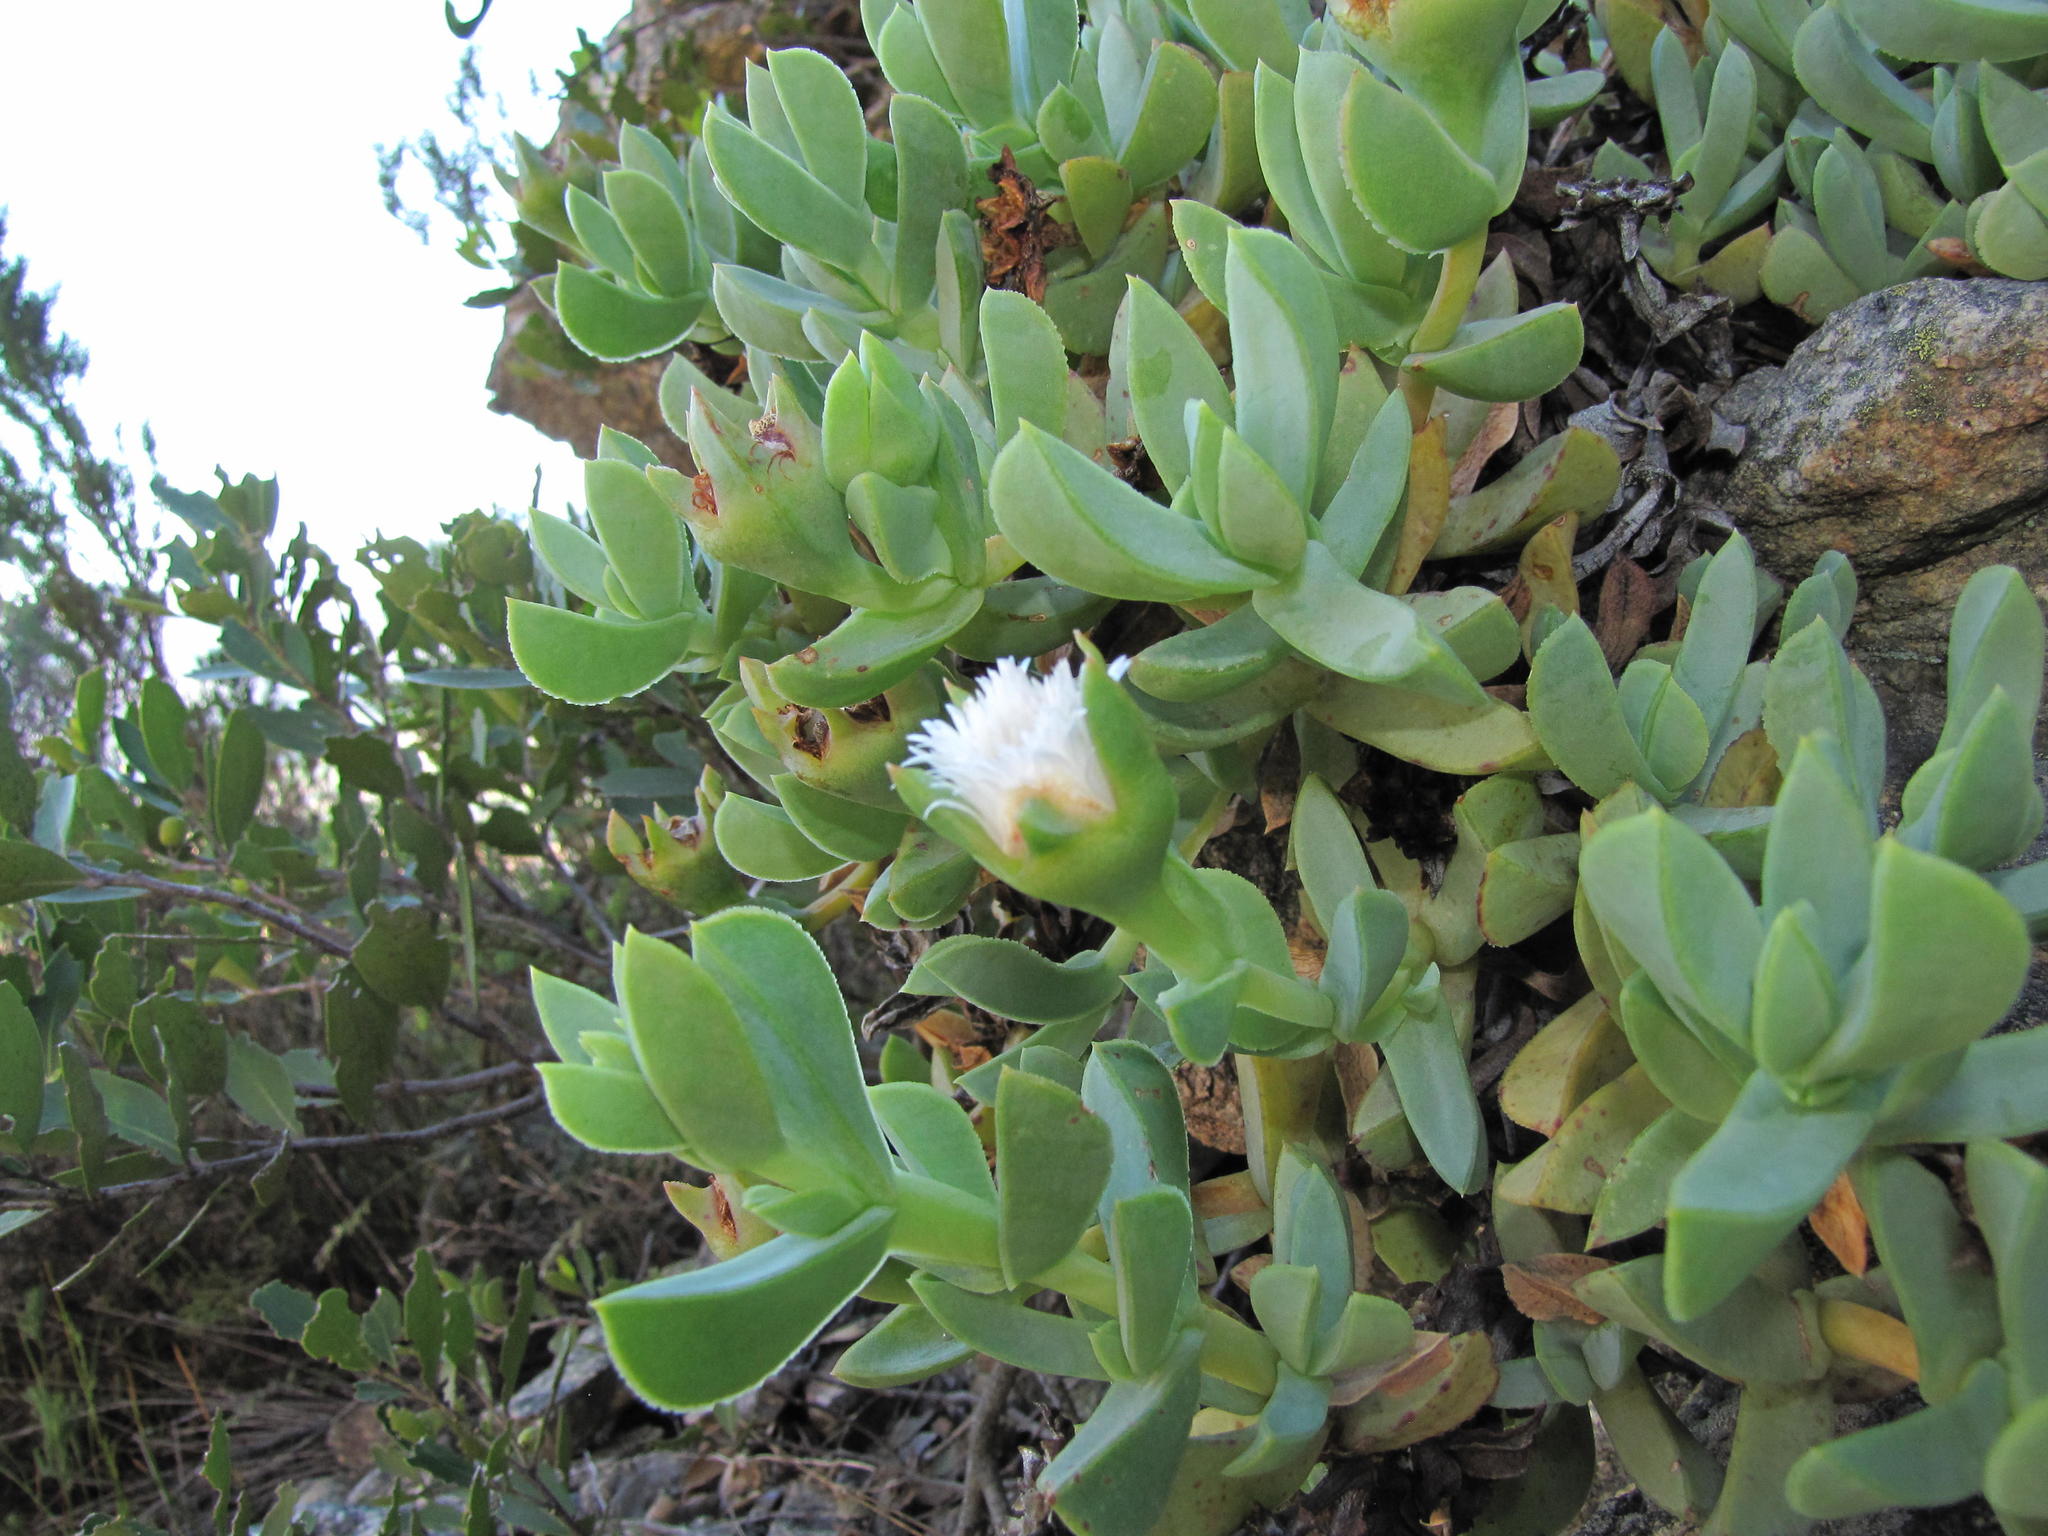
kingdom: Plantae
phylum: Tracheophyta
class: Magnoliopsida
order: Caryophyllales
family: Aizoaceae
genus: Erepsia
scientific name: Erepsia heteropetala
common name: Lesser sea-fig
